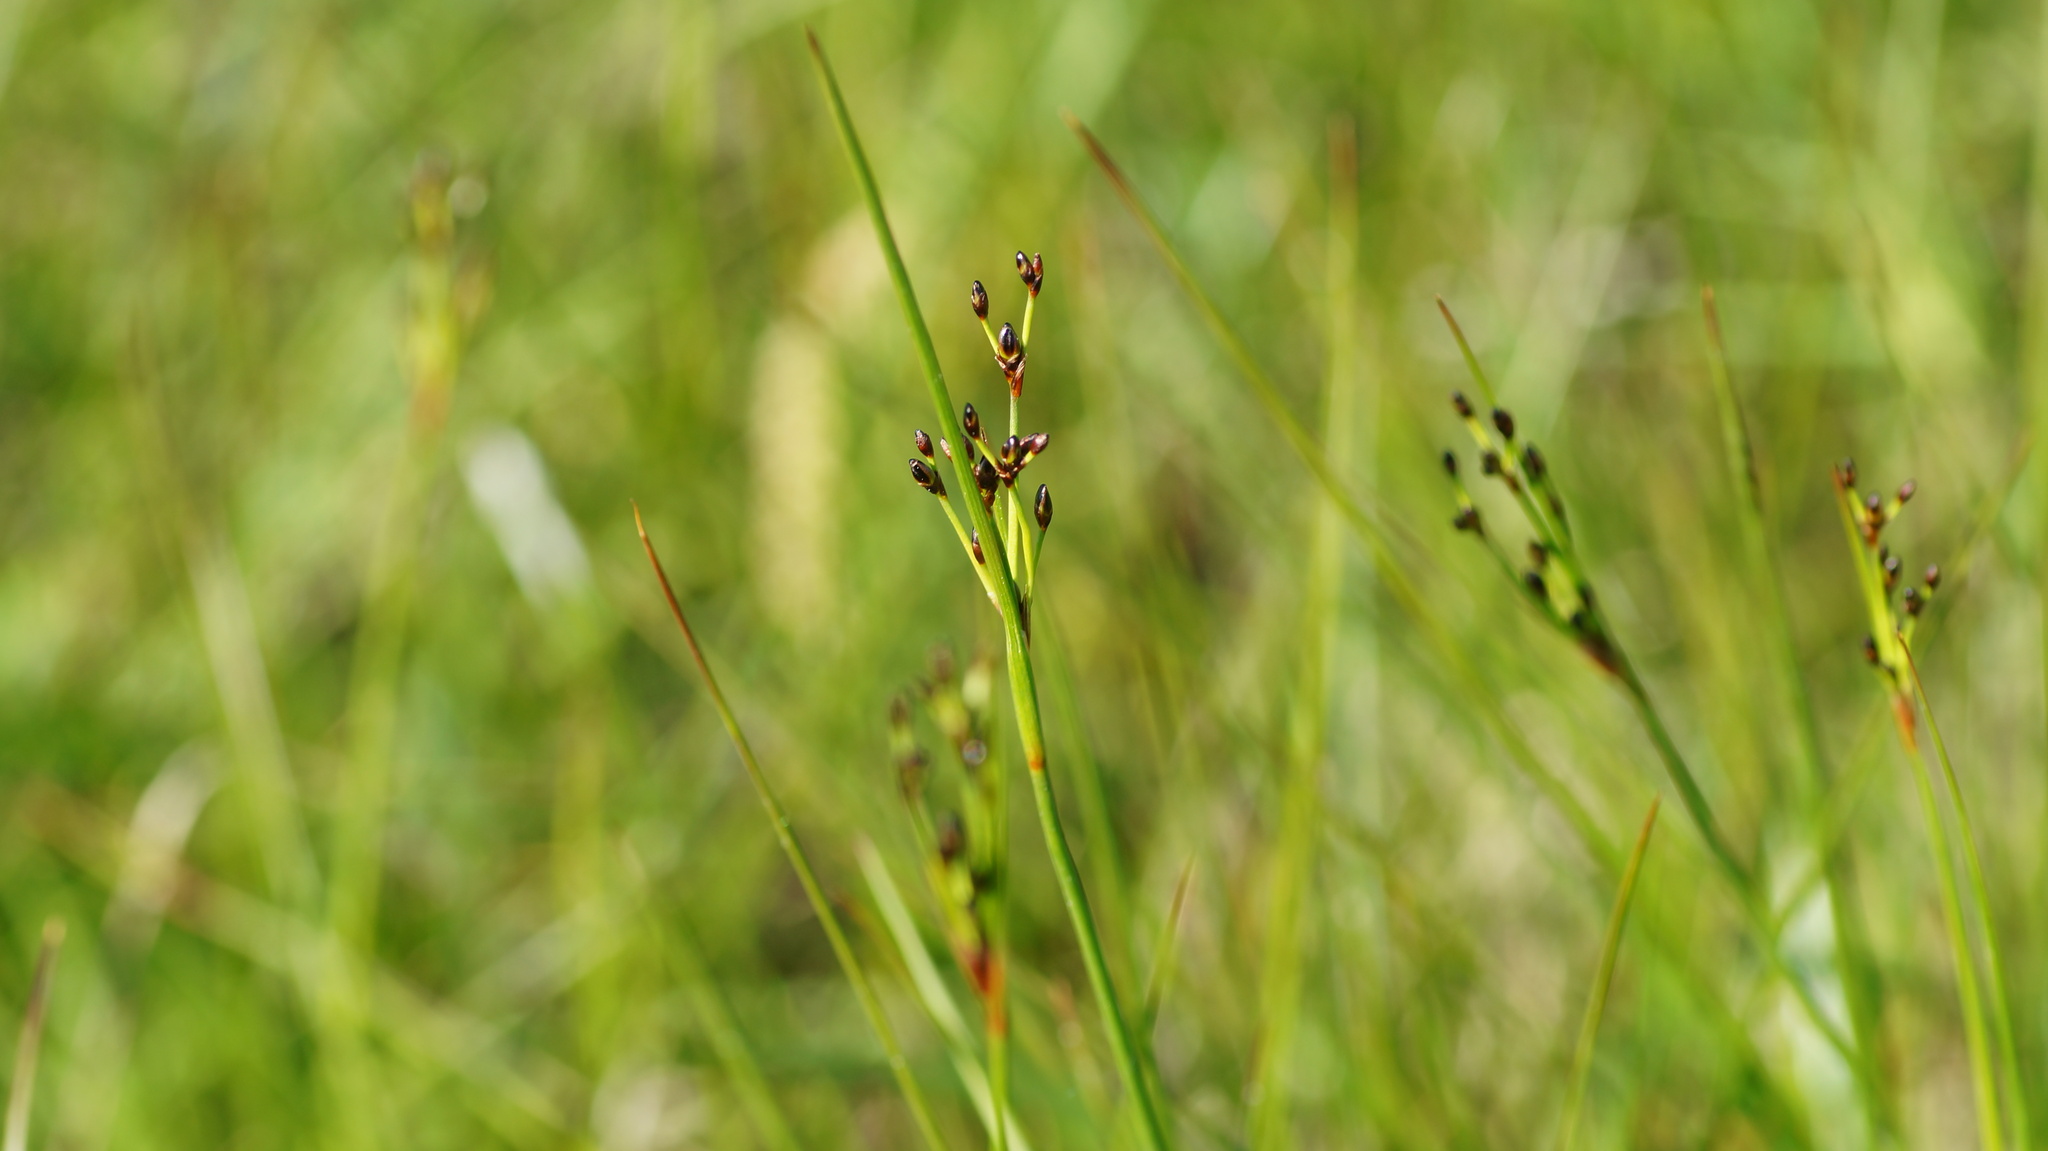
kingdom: Plantae
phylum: Tracheophyta
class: Liliopsida
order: Poales
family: Juncaceae
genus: Juncus
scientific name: Juncus gerardi
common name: Saltmarsh rush
